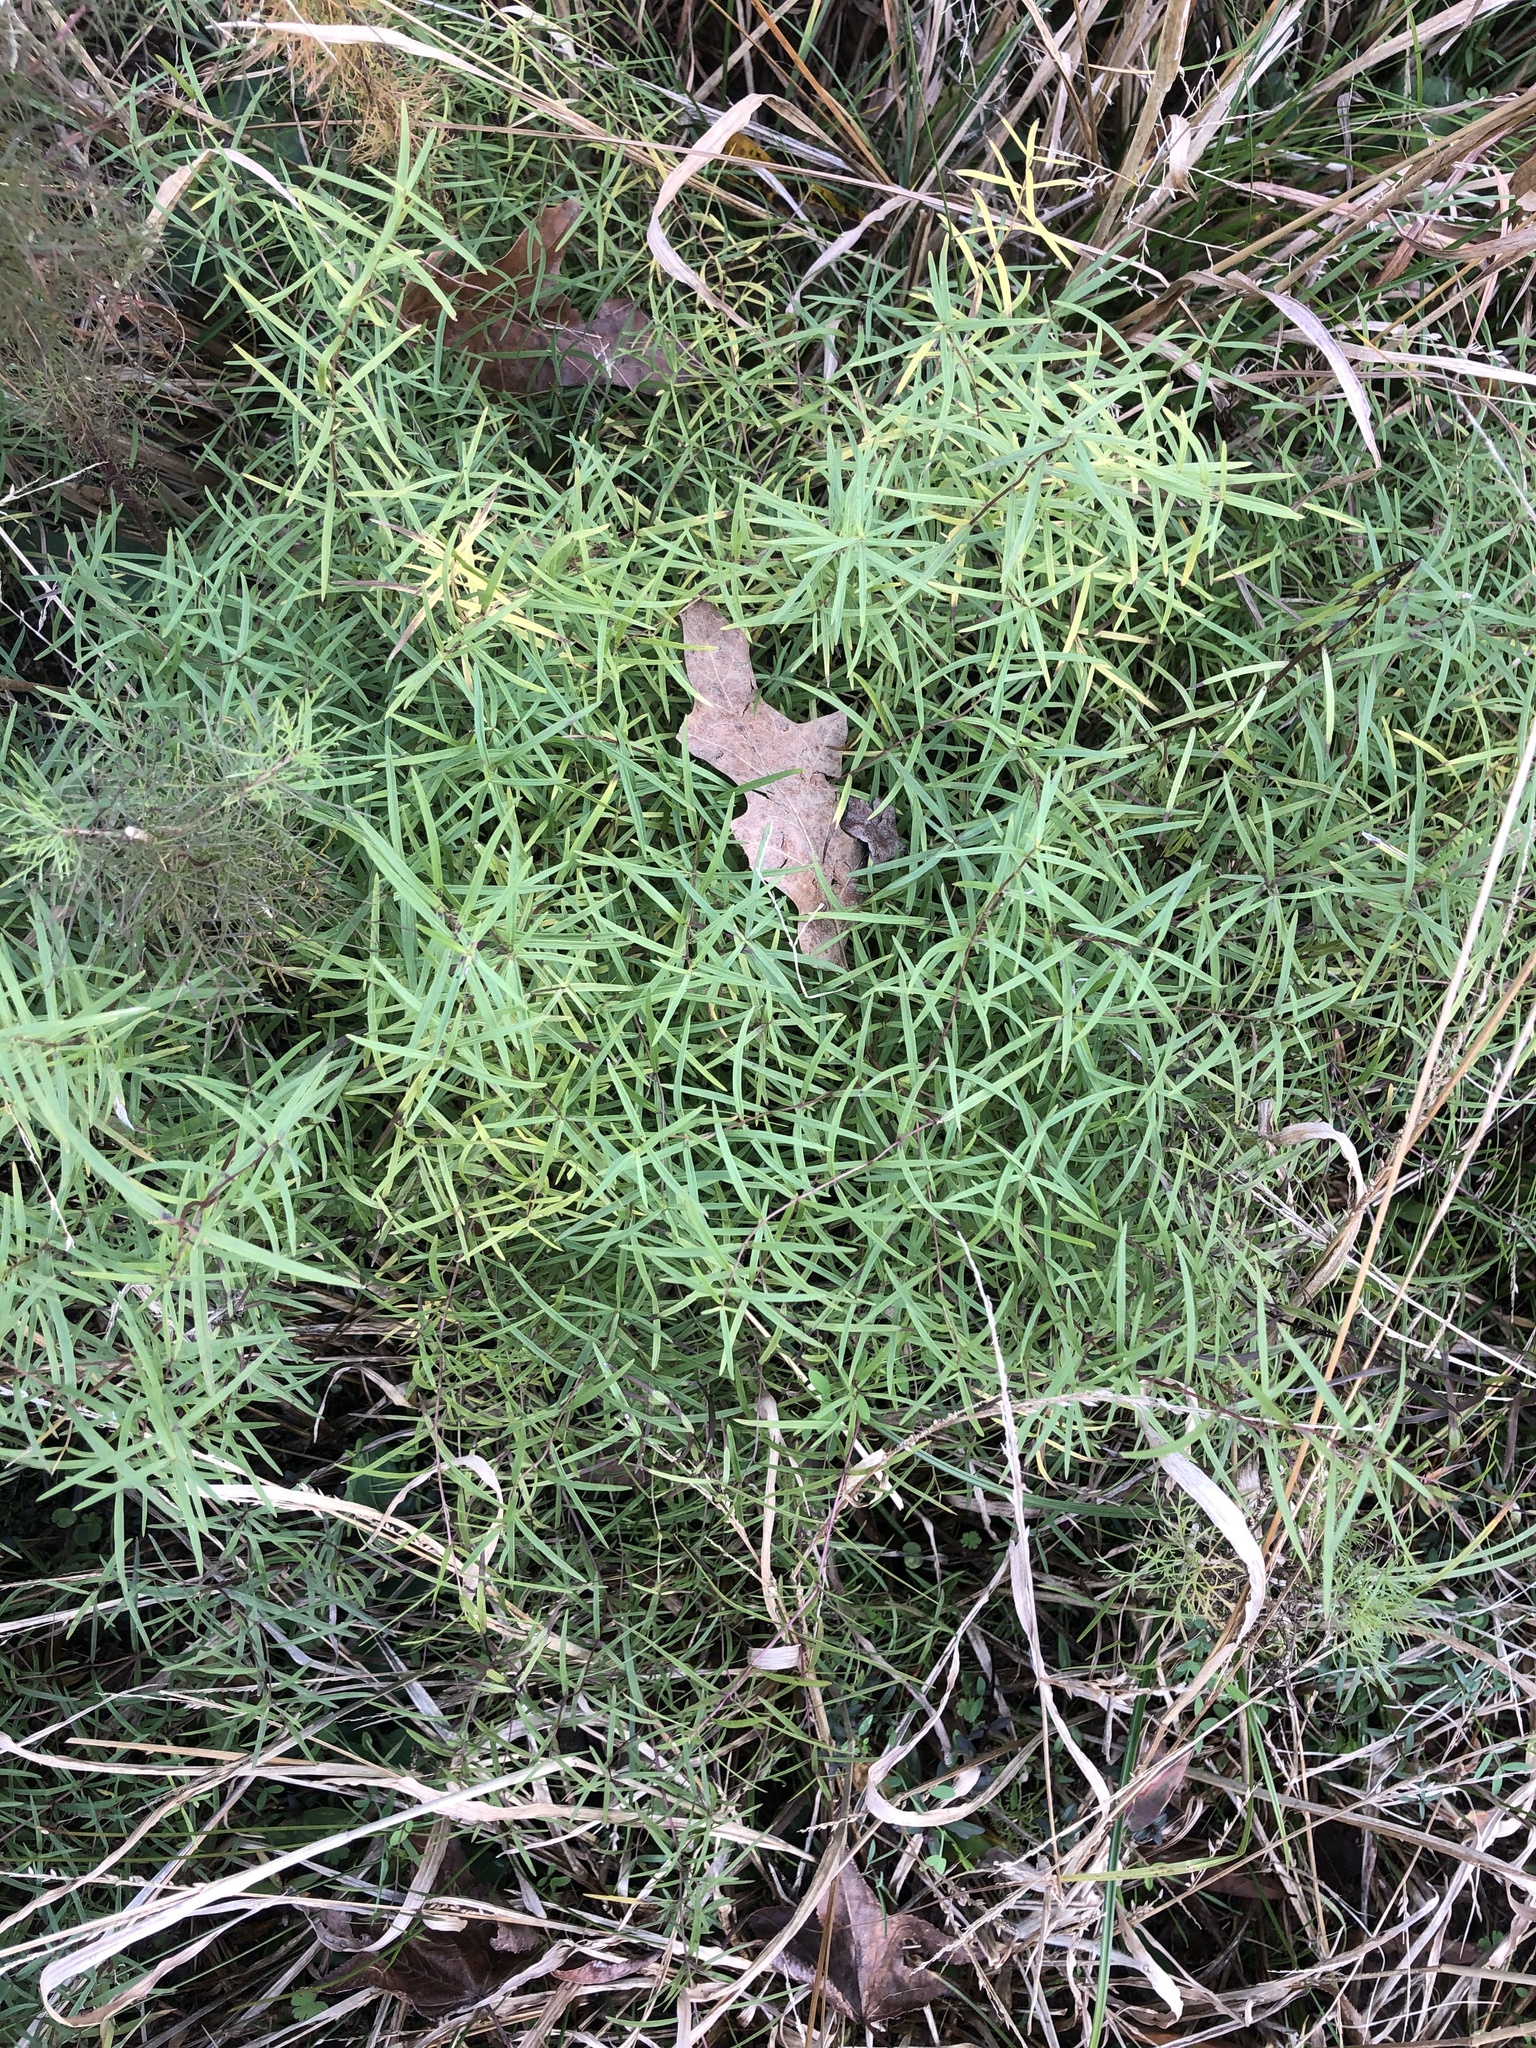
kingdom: Plantae
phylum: Tracheophyta
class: Magnoliopsida
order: Lamiales
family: Lamiaceae
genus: Pycnanthemum
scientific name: Pycnanthemum tenuifolium
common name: Narrow-leaf mountain-mint
